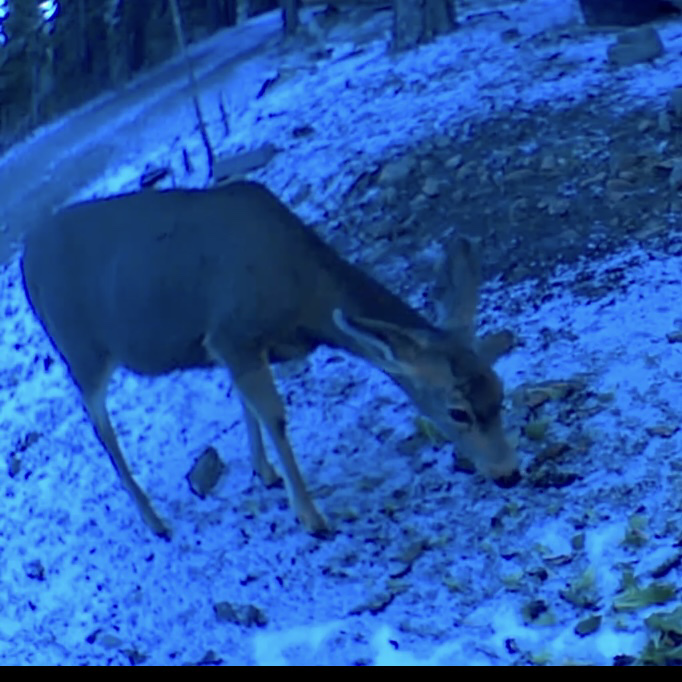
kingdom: Animalia
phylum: Chordata
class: Mammalia
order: Artiodactyla
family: Cervidae
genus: Odocoileus
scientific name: Odocoileus hemionus
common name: Mule deer
